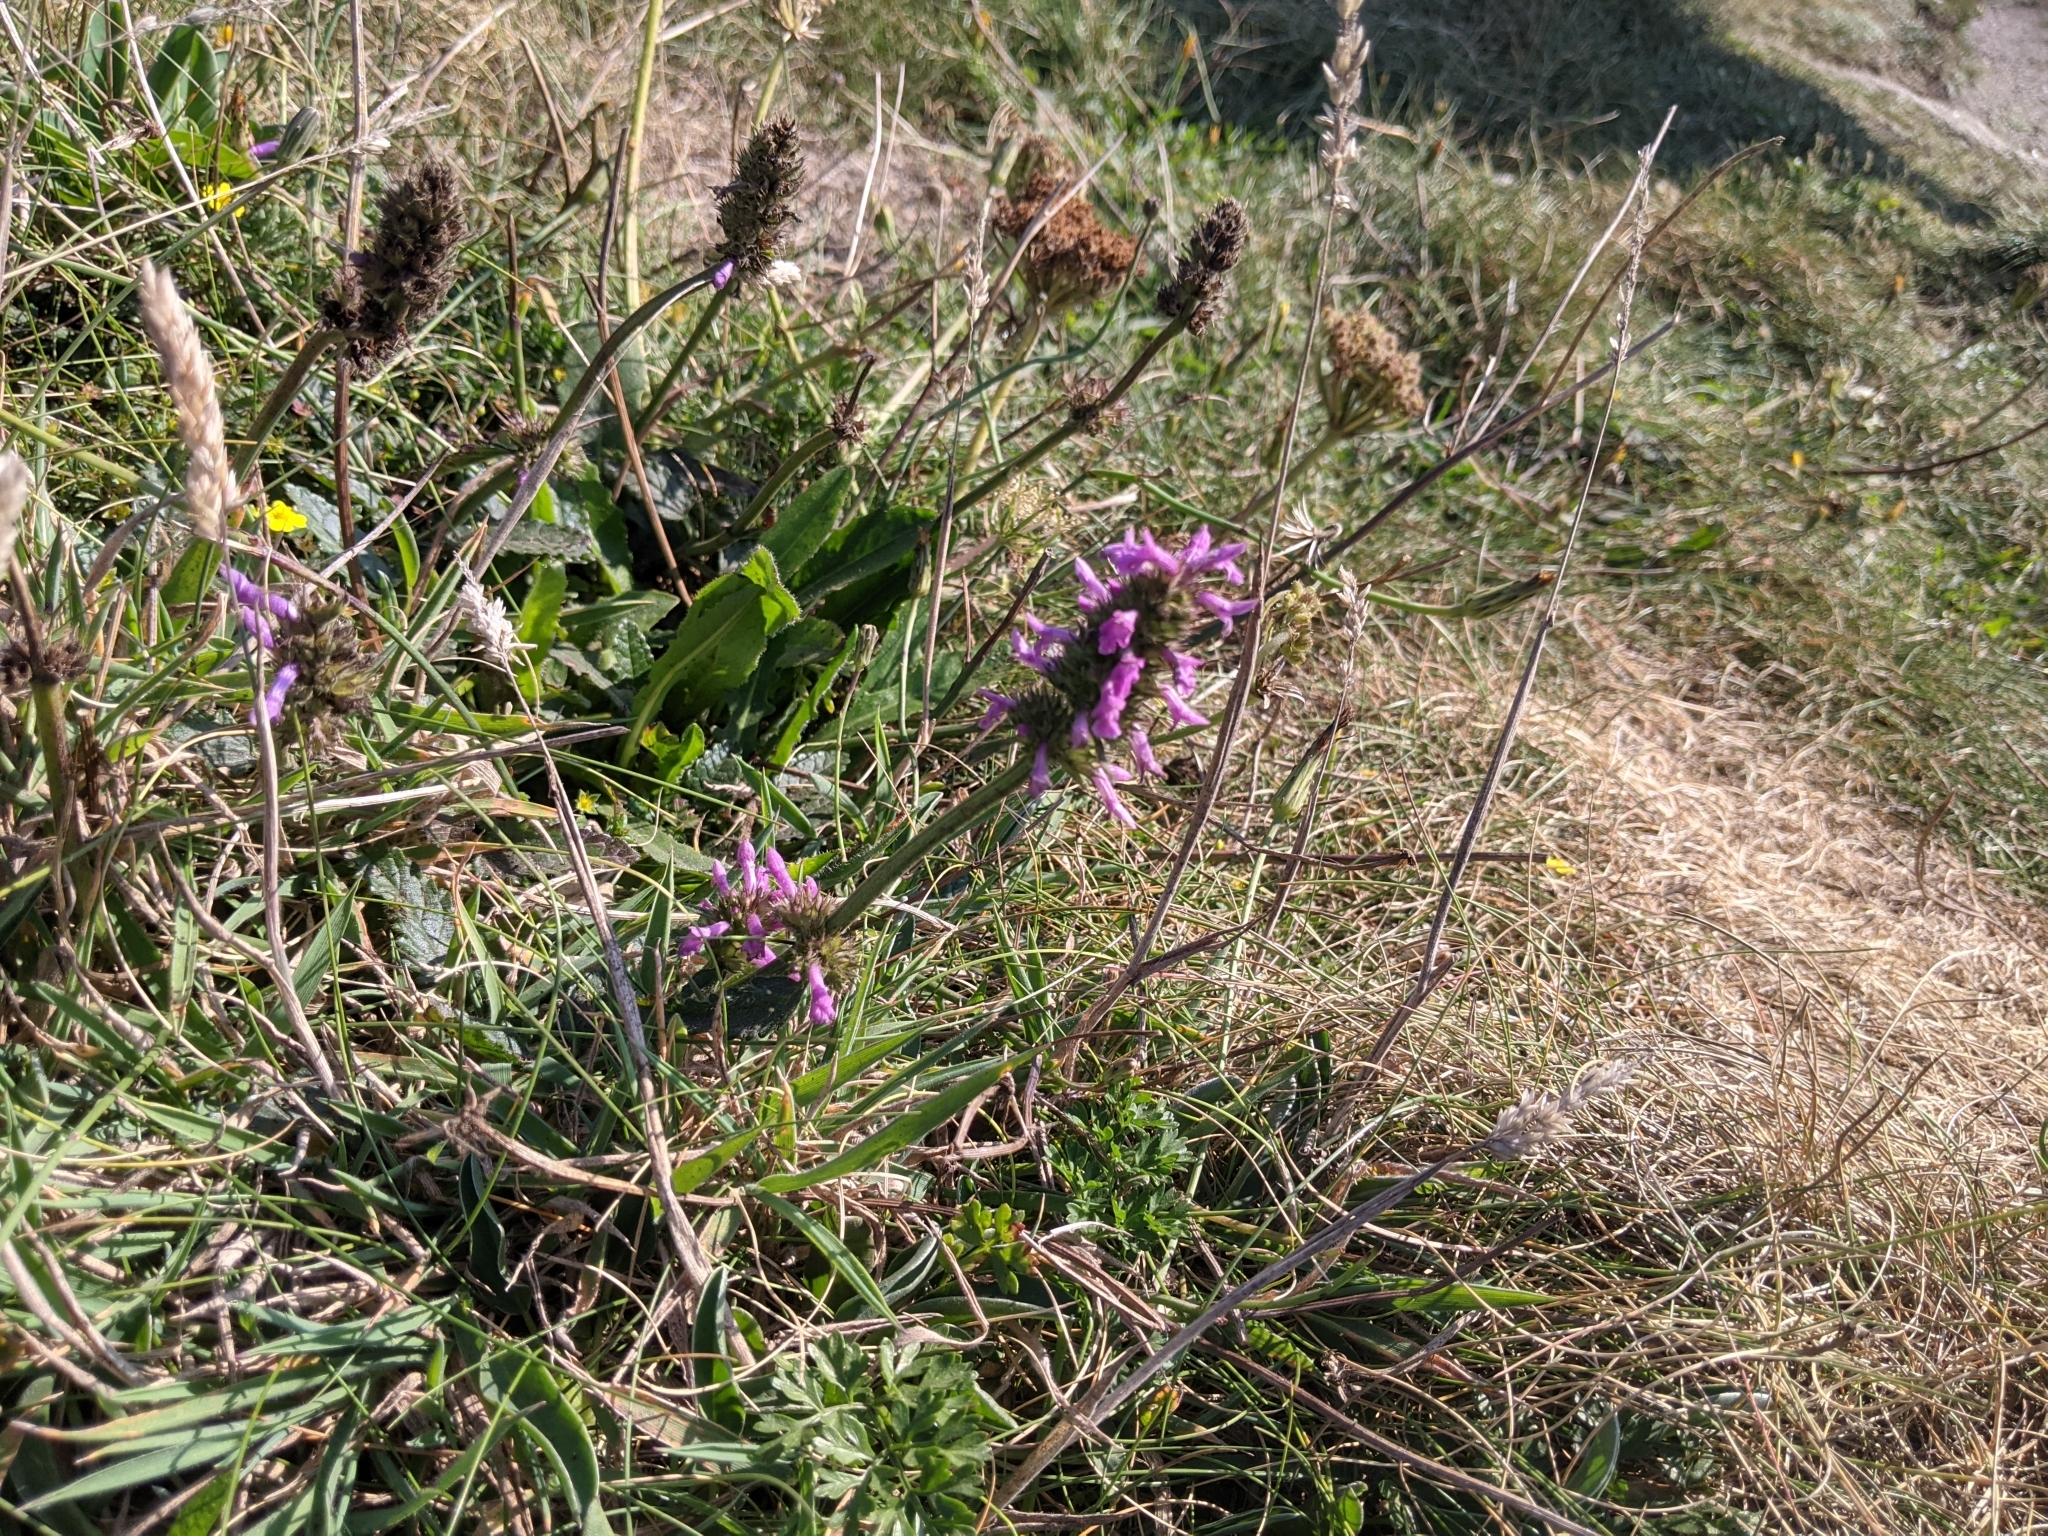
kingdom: Plantae
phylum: Tracheophyta
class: Magnoliopsida
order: Lamiales
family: Lamiaceae
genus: Betonica
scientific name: Betonica officinalis
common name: Bishop's-wort
